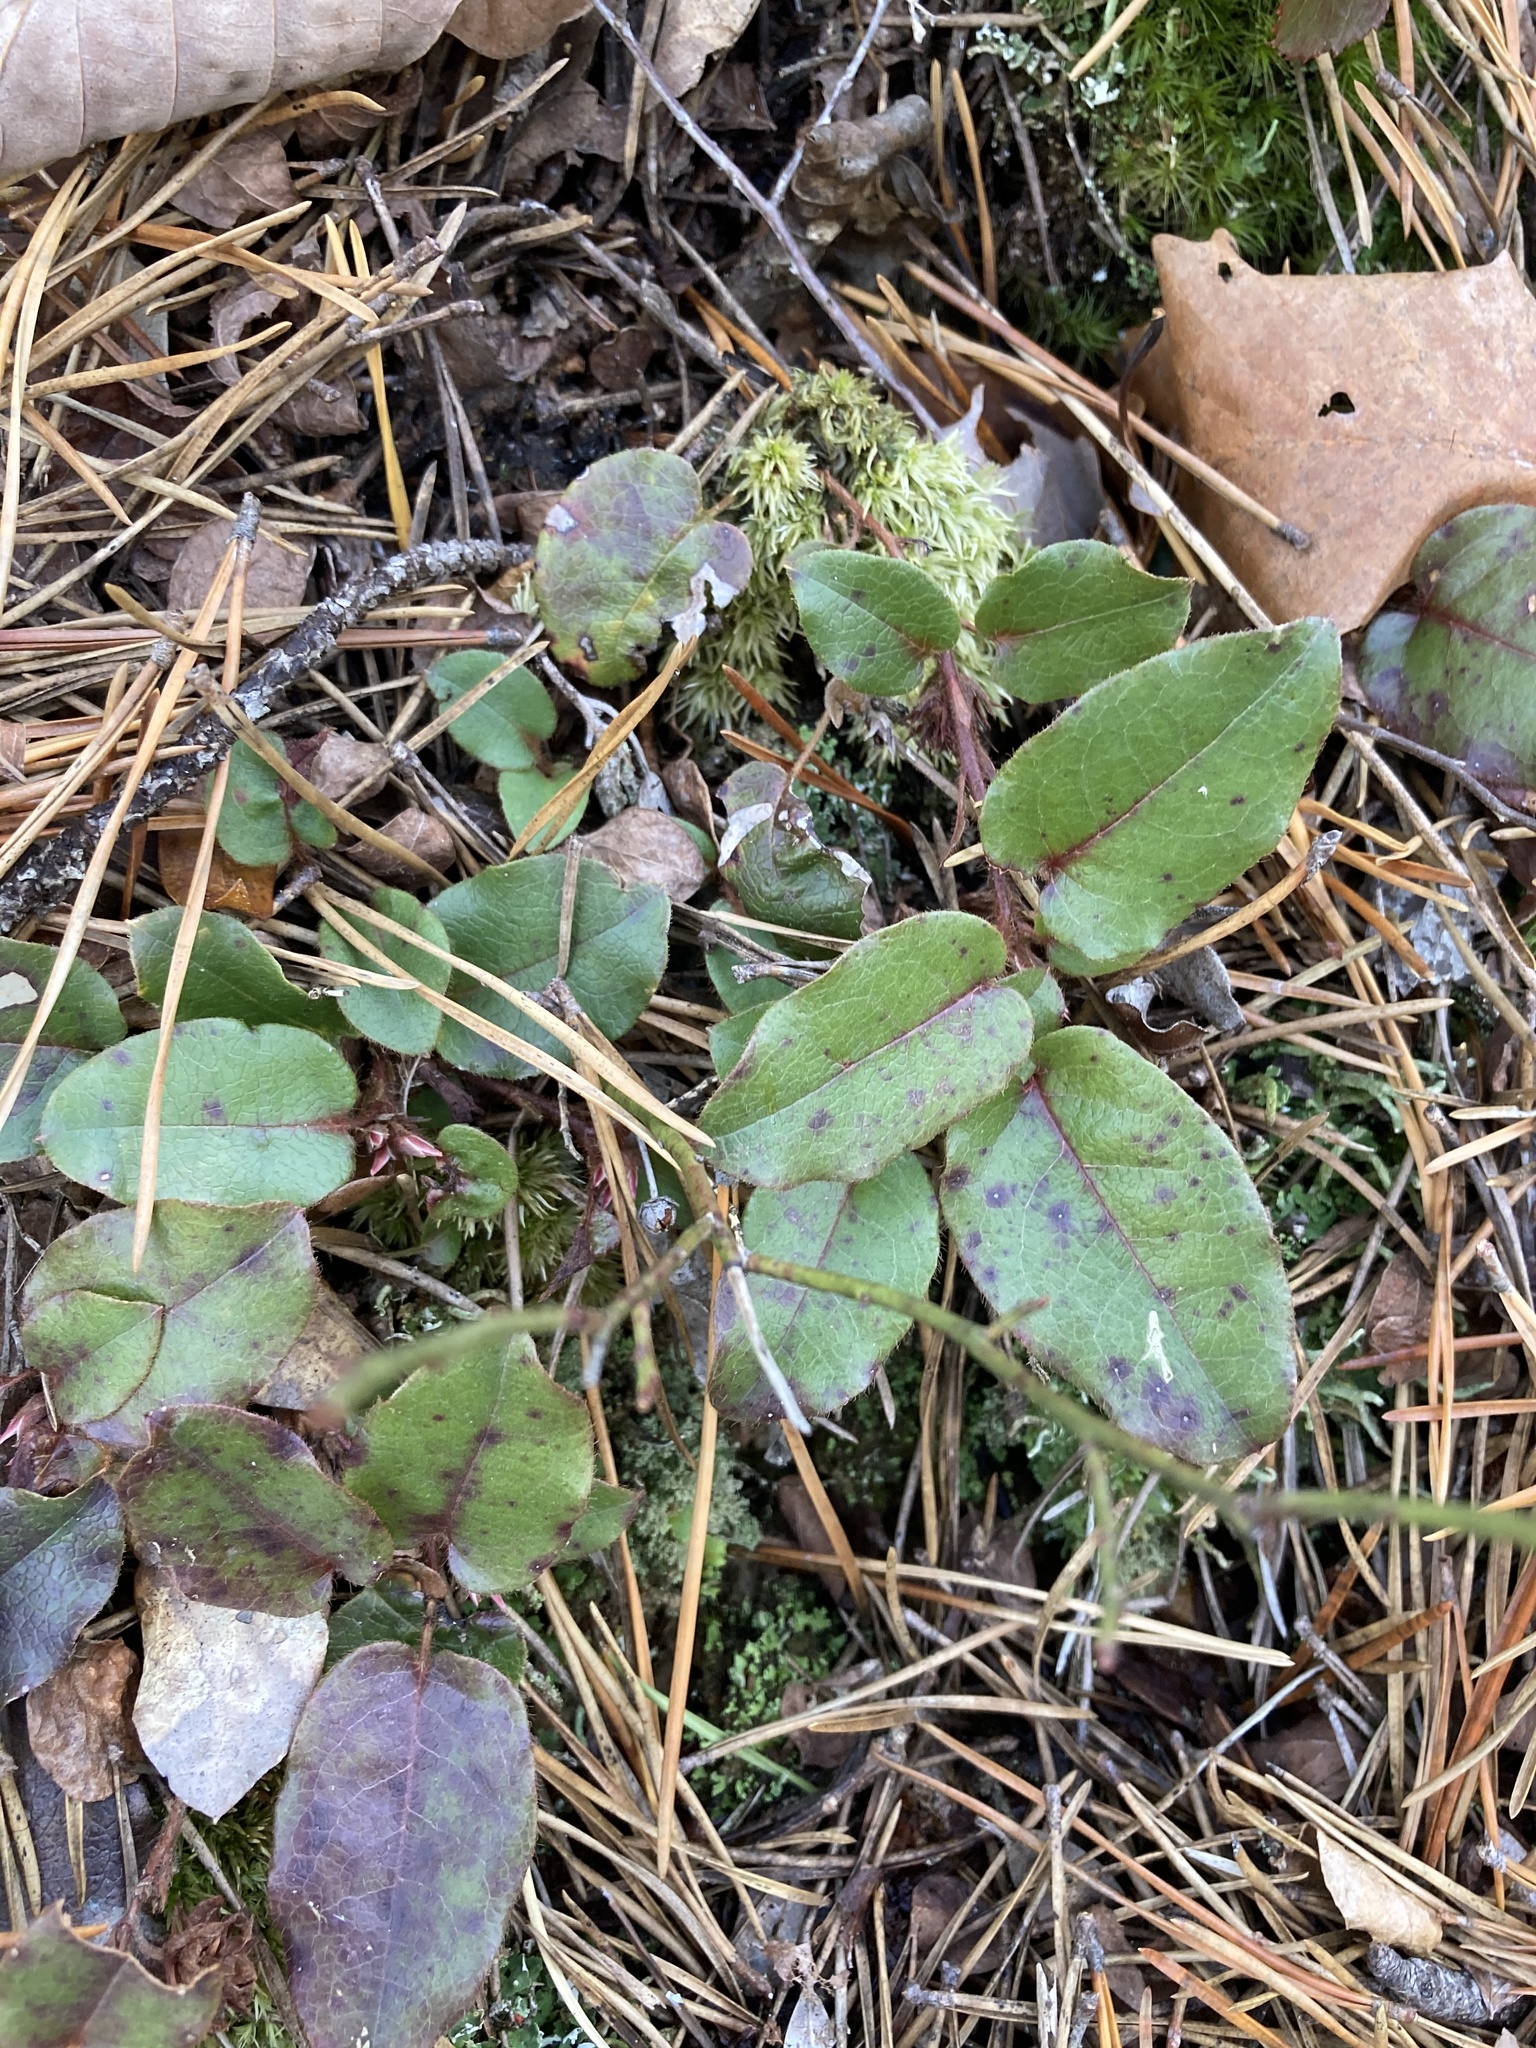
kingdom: Plantae
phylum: Tracheophyta
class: Magnoliopsida
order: Ericales
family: Ericaceae
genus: Epigaea
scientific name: Epigaea repens
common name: Gravelroot
